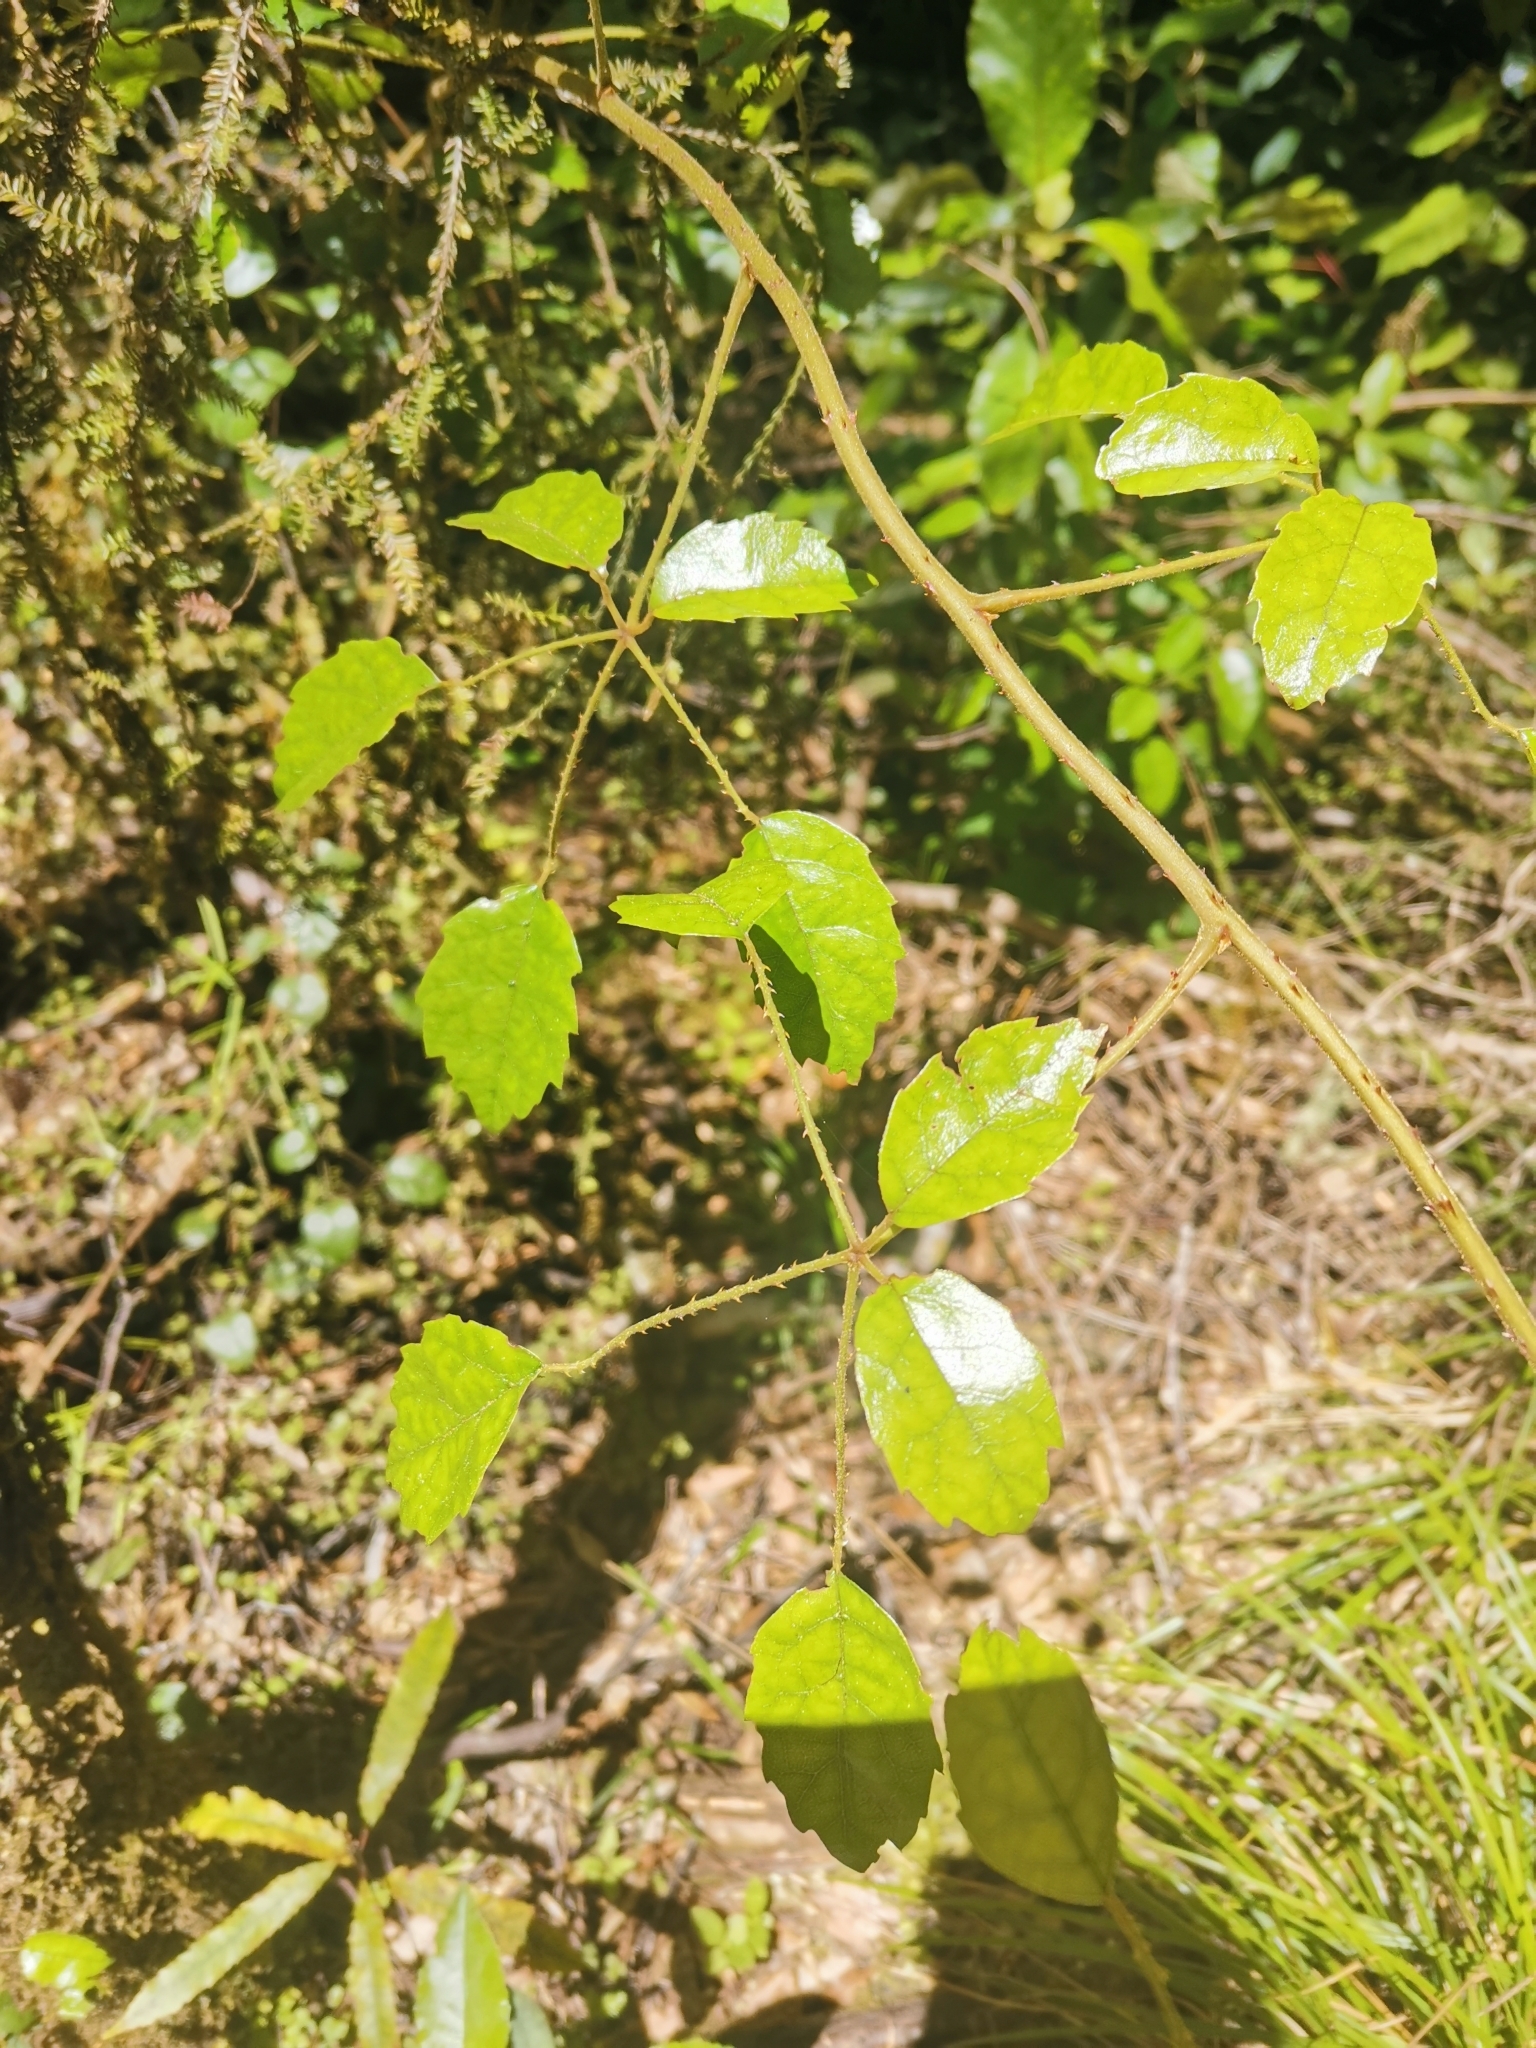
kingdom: Plantae
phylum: Tracheophyta
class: Magnoliopsida
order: Rosales
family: Rosaceae
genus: Rubus
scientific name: Rubus cissoides
